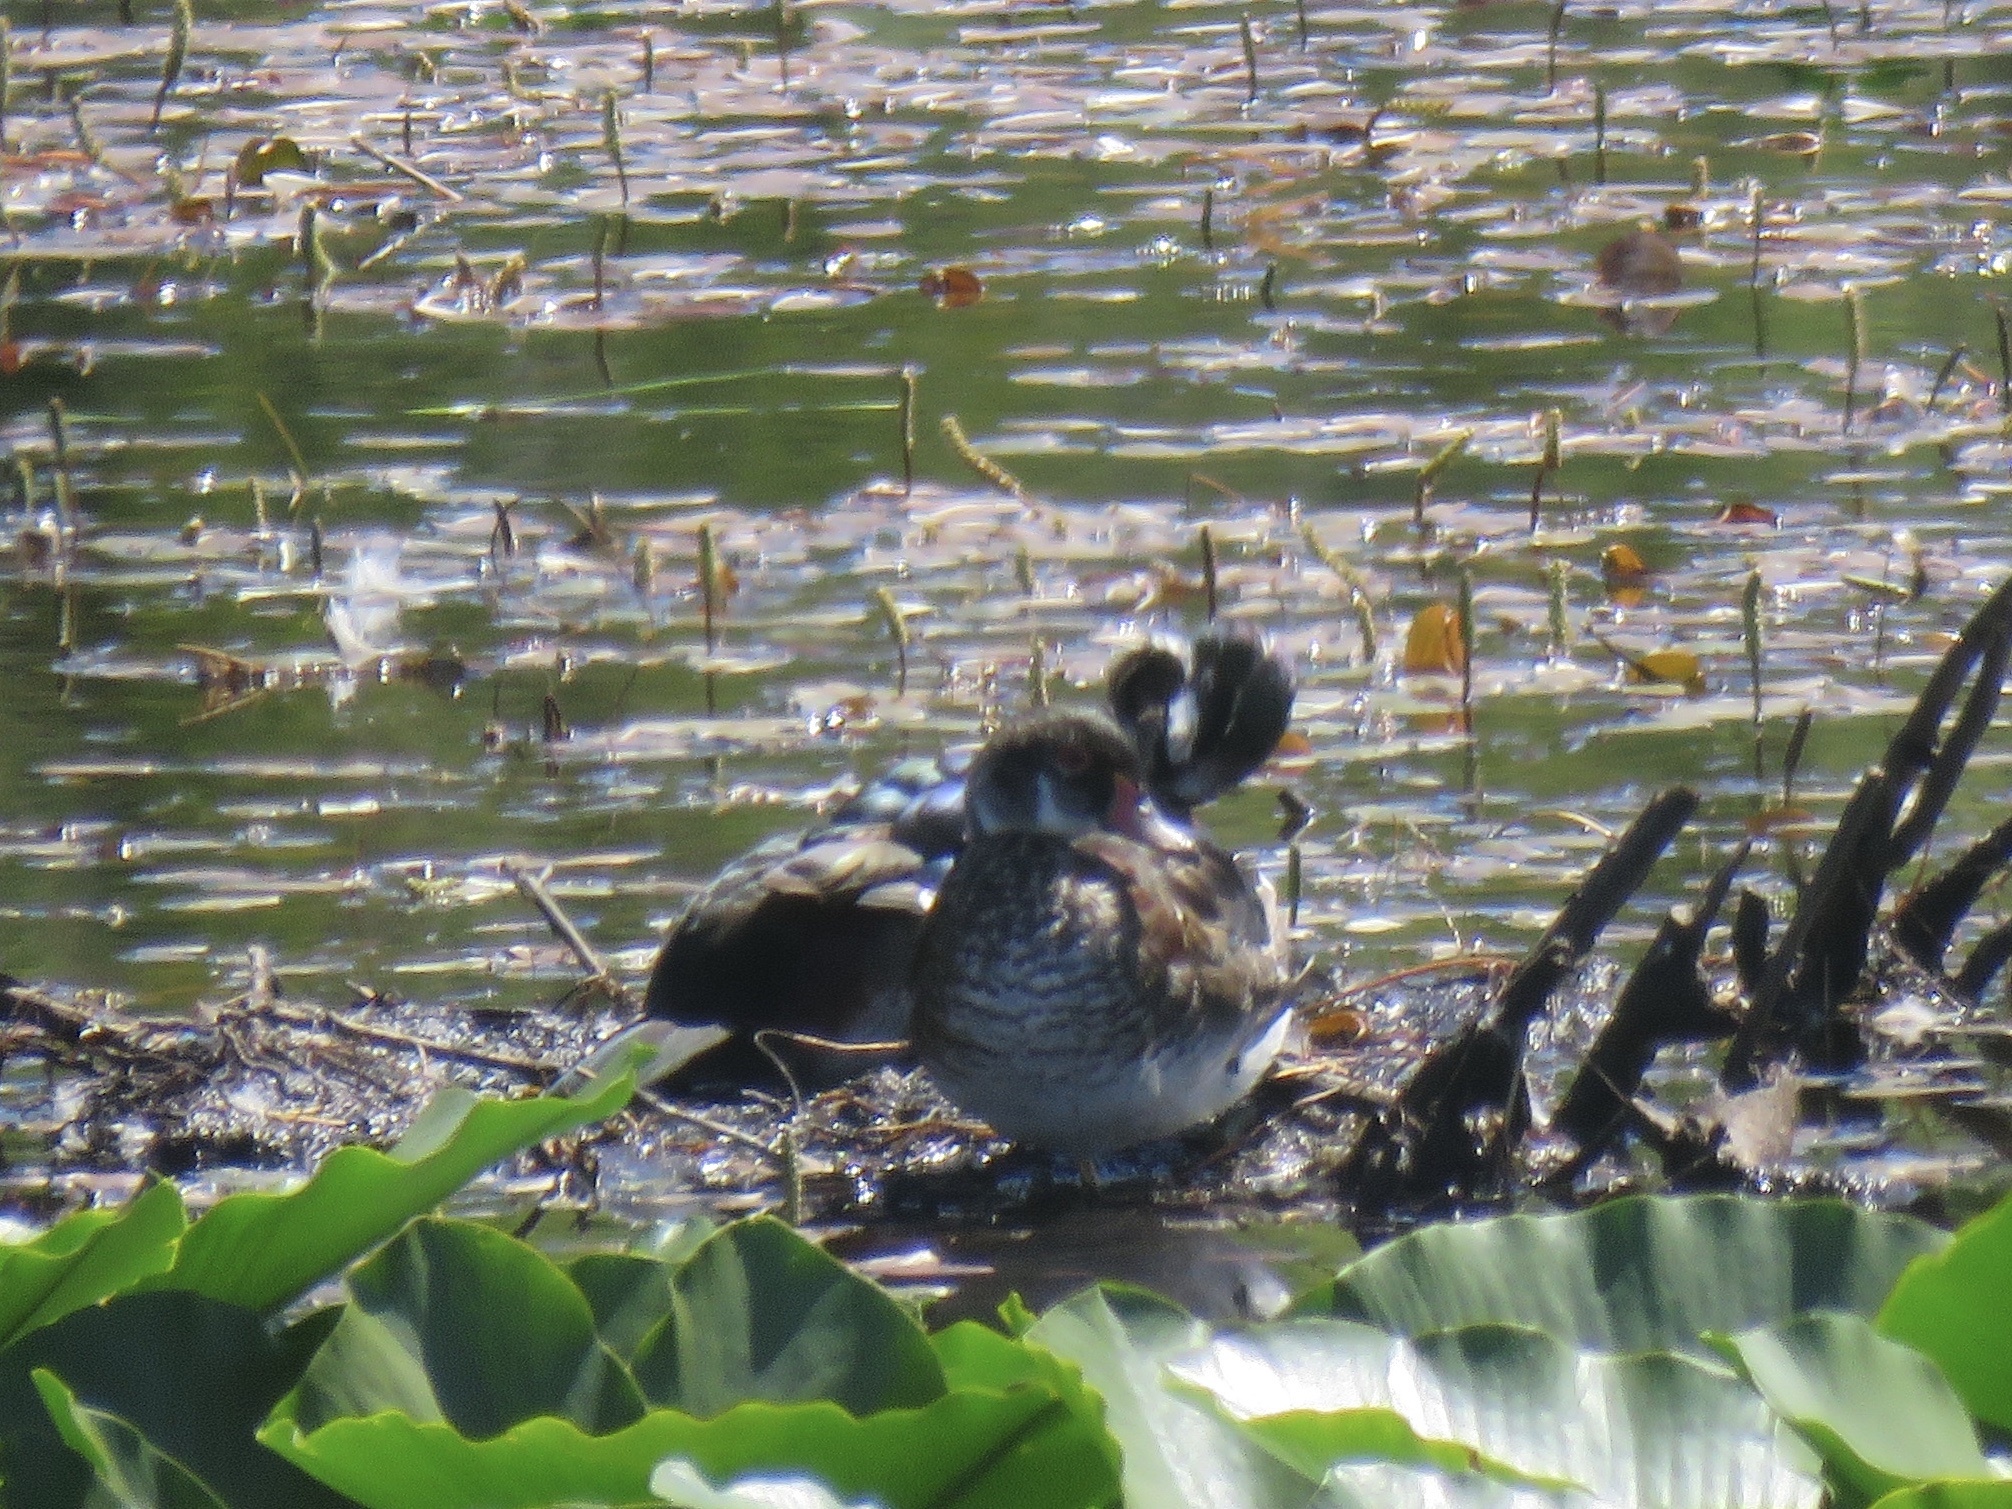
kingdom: Animalia
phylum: Chordata
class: Aves
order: Anseriformes
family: Anatidae
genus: Aix
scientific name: Aix sponsa
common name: Wood duck
